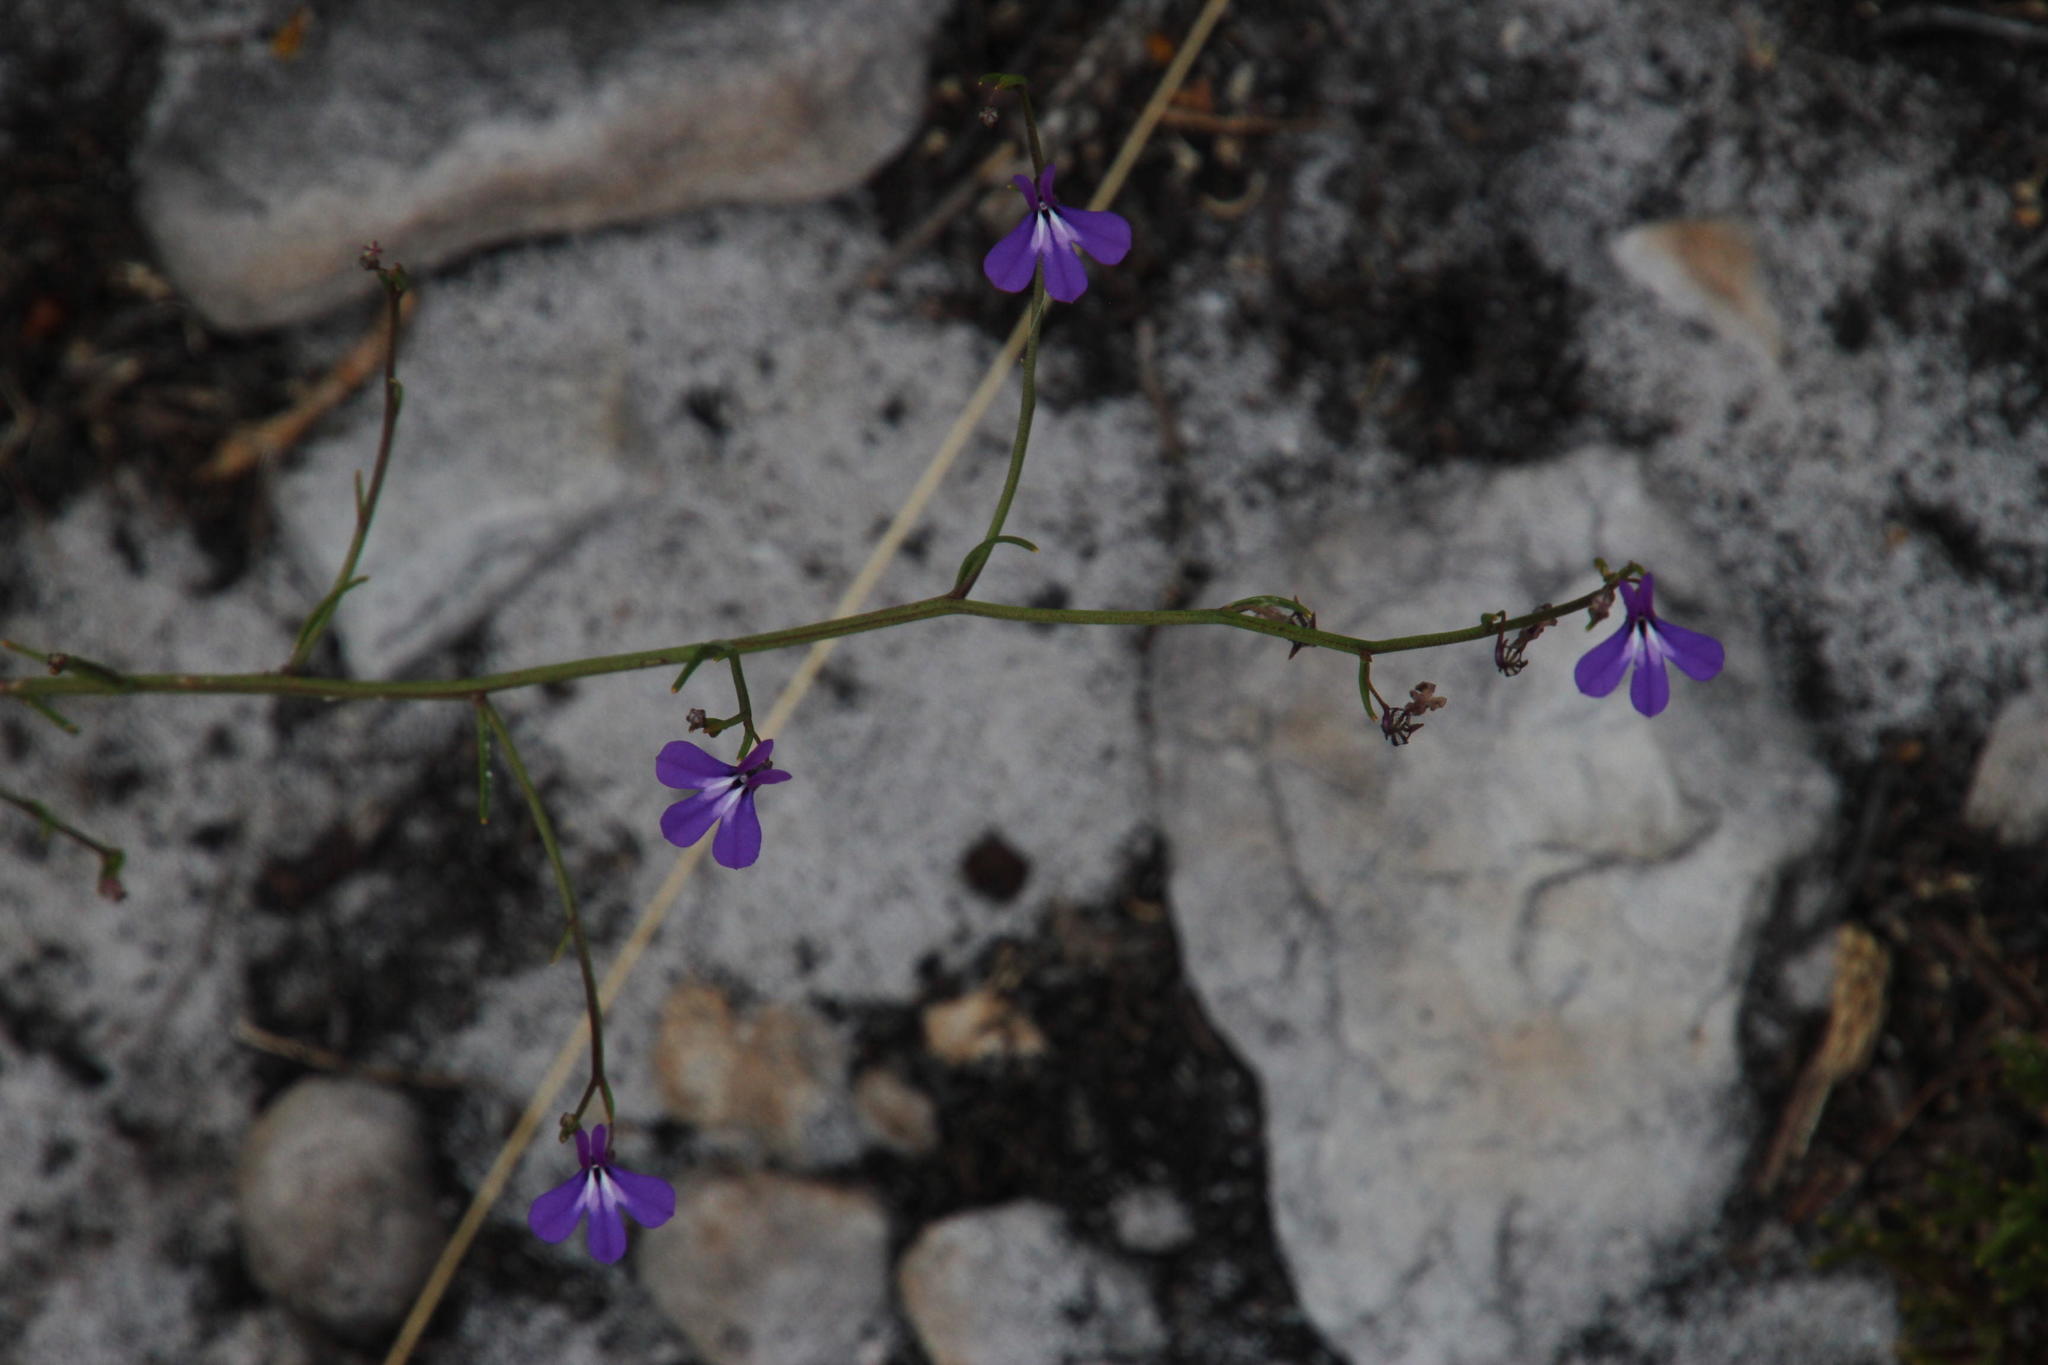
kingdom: Plantae
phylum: Tracheophyta
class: Magnoliopsida
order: Asterales
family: Campanulaceae
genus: Lobelia
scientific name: Lobelia setacea
